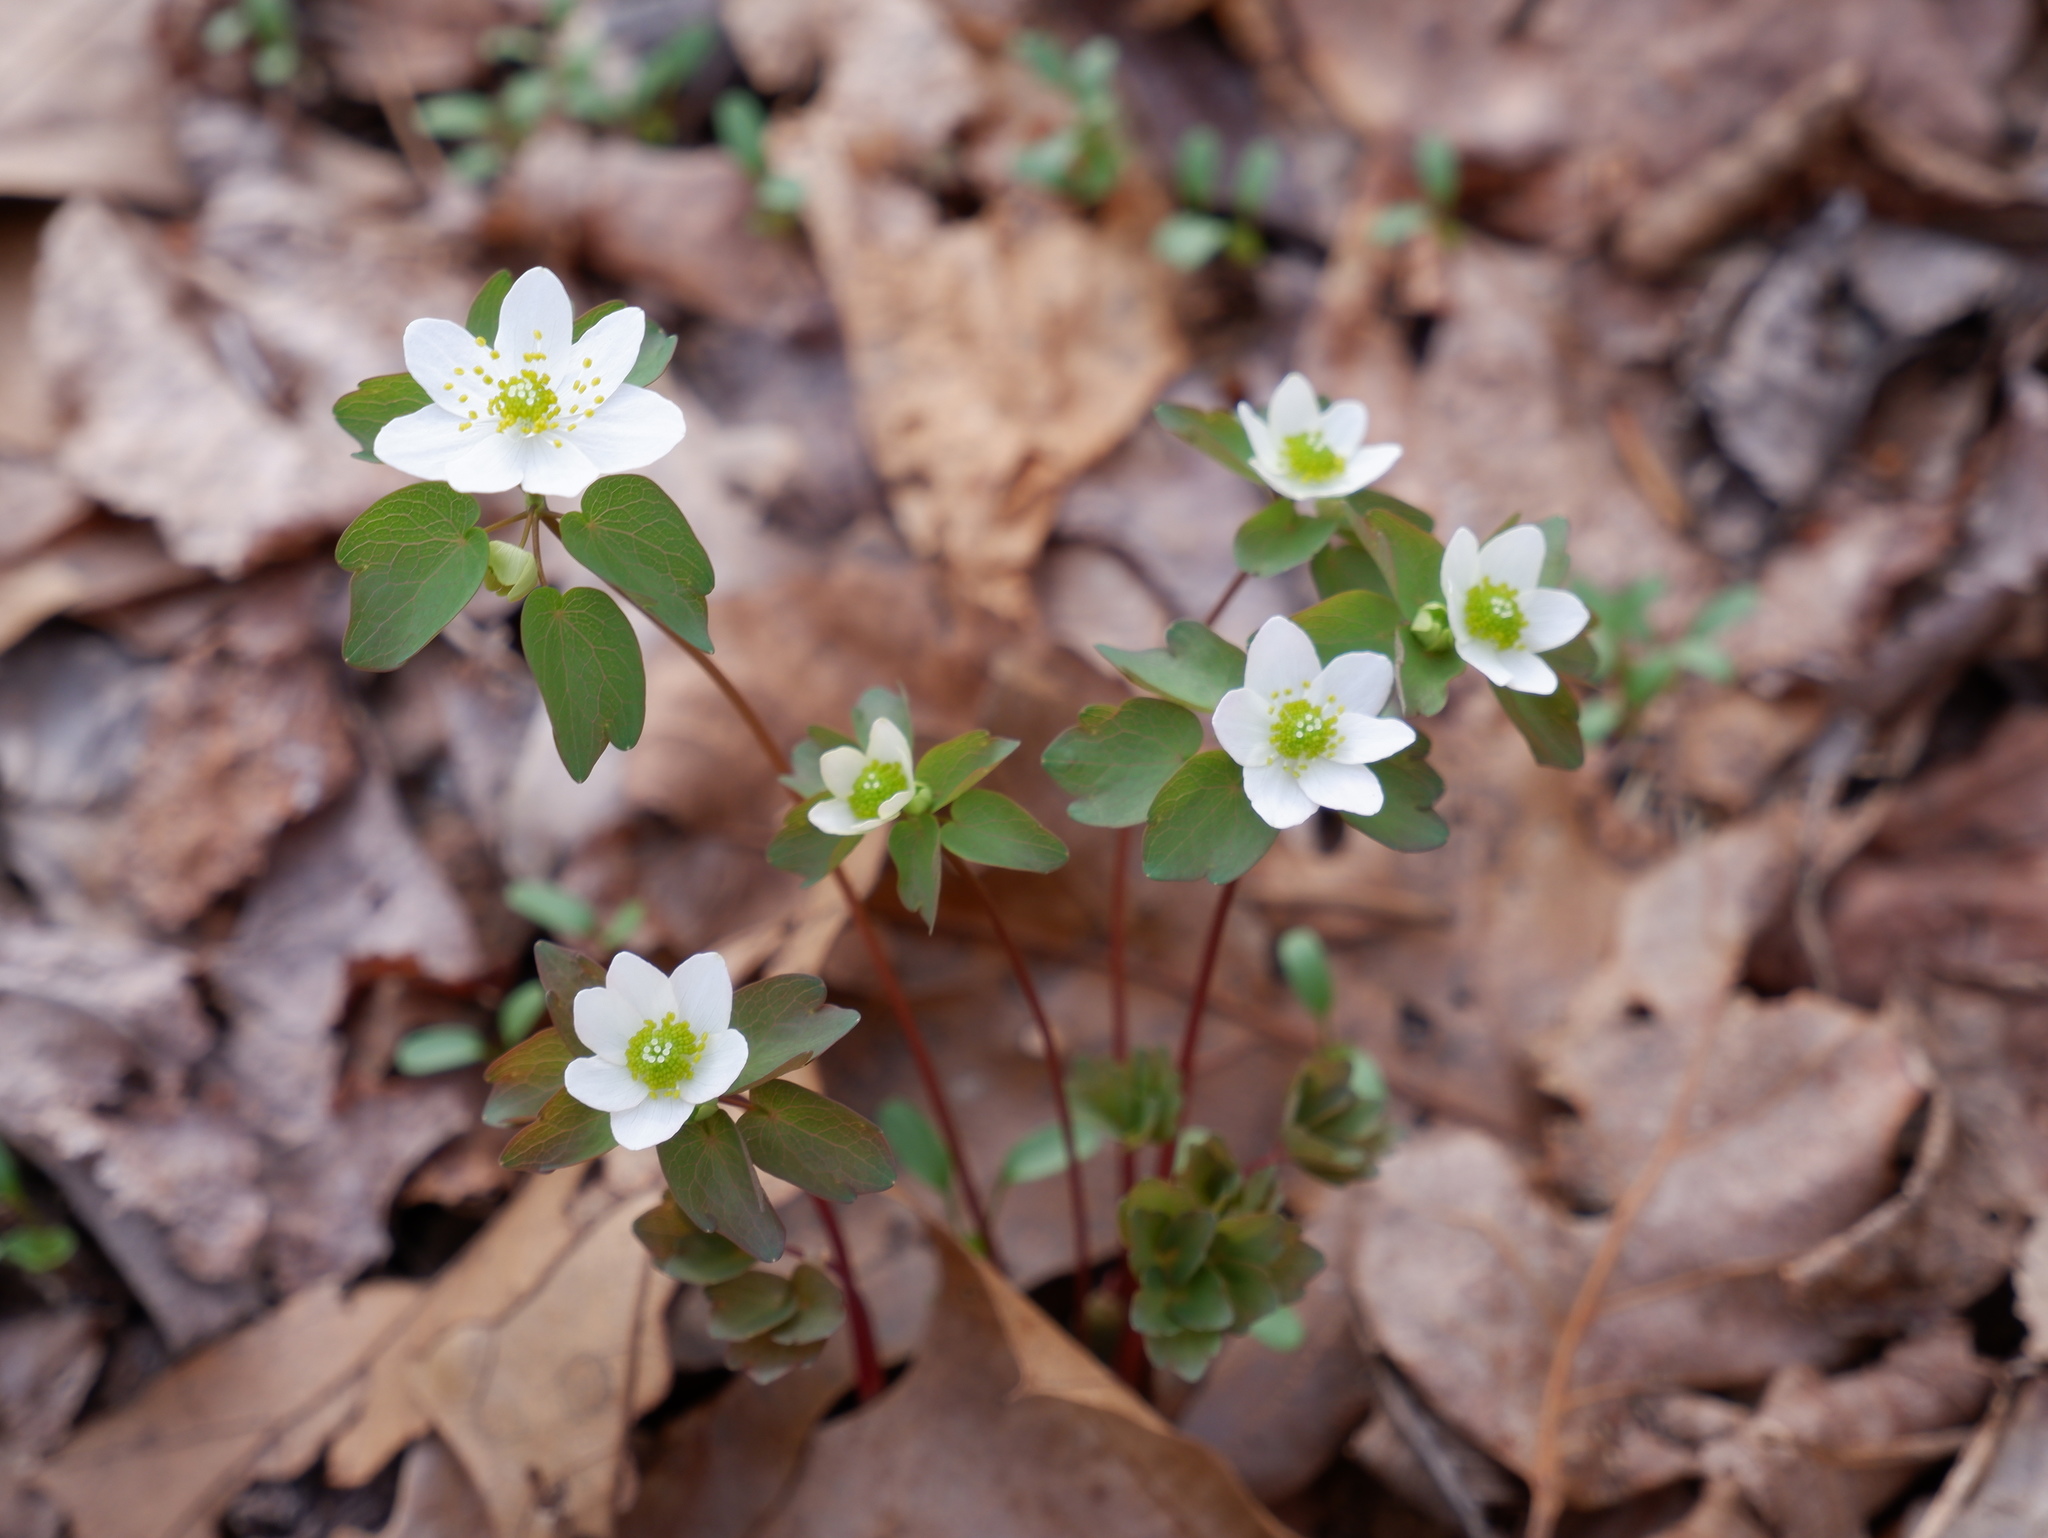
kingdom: Plantae
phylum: Tracheophyta
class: Magnoliopsida
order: Ranunculales
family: Ranunculaceae
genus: Thalictrum
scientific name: Thalictrum thalictroides
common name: Rue-anemone
